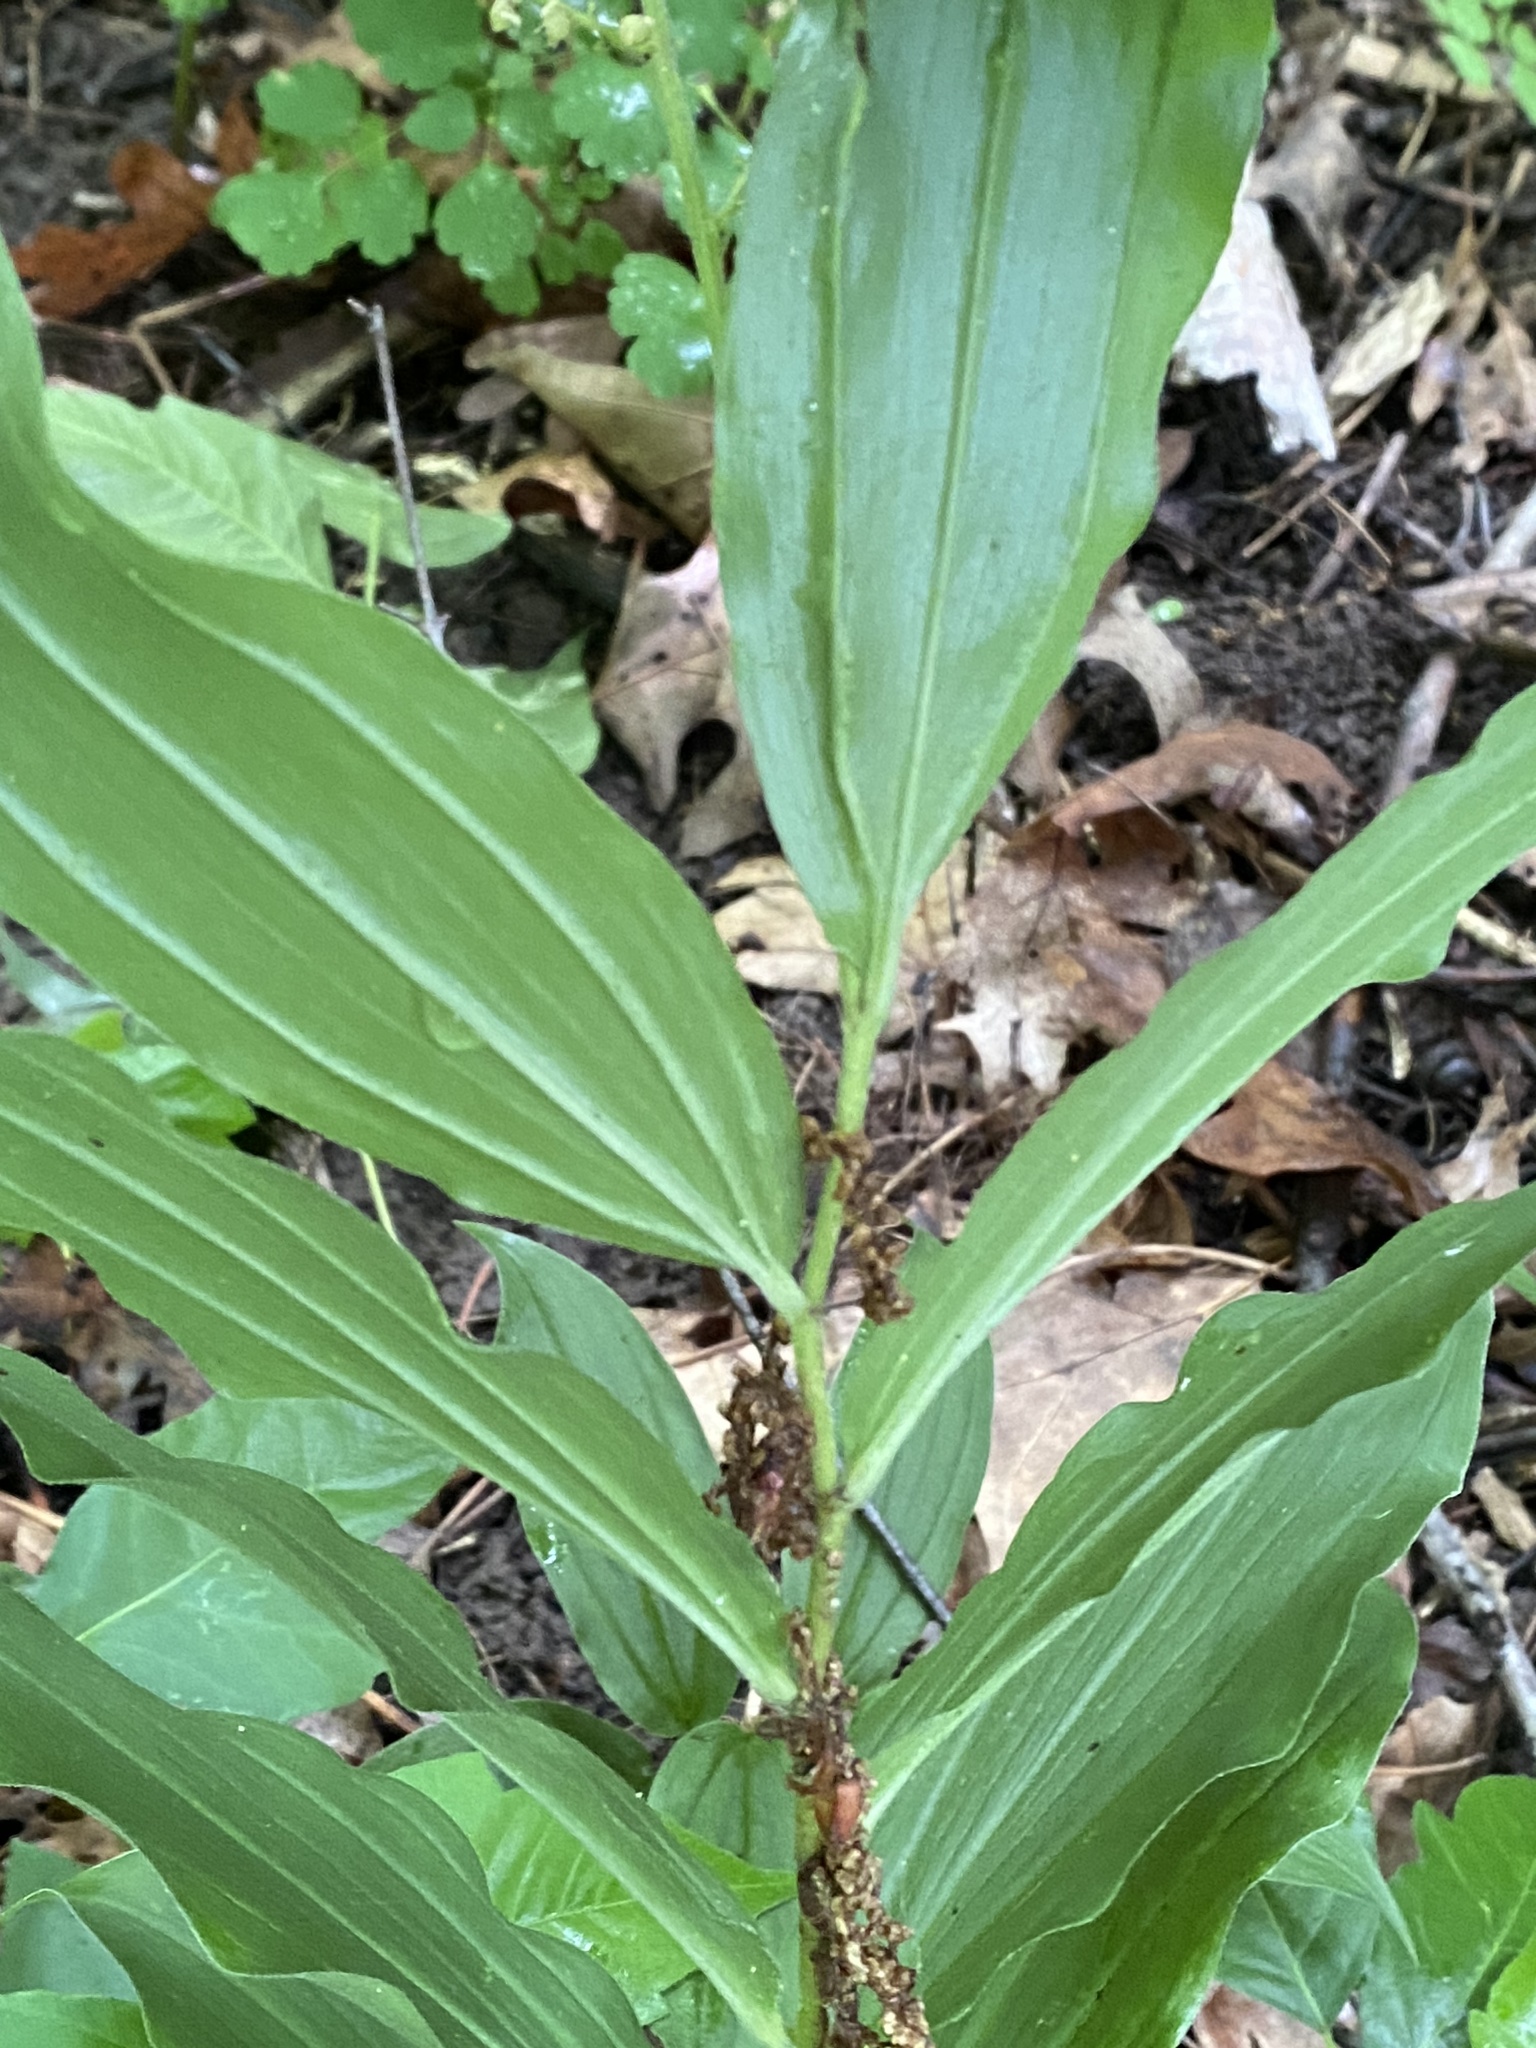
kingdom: Plantae
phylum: Tracheophyta
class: Liliopsida
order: Asparagales
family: Asparagaceae
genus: Maianthemum
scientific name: Maianthemum racemosum
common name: False spikenard
